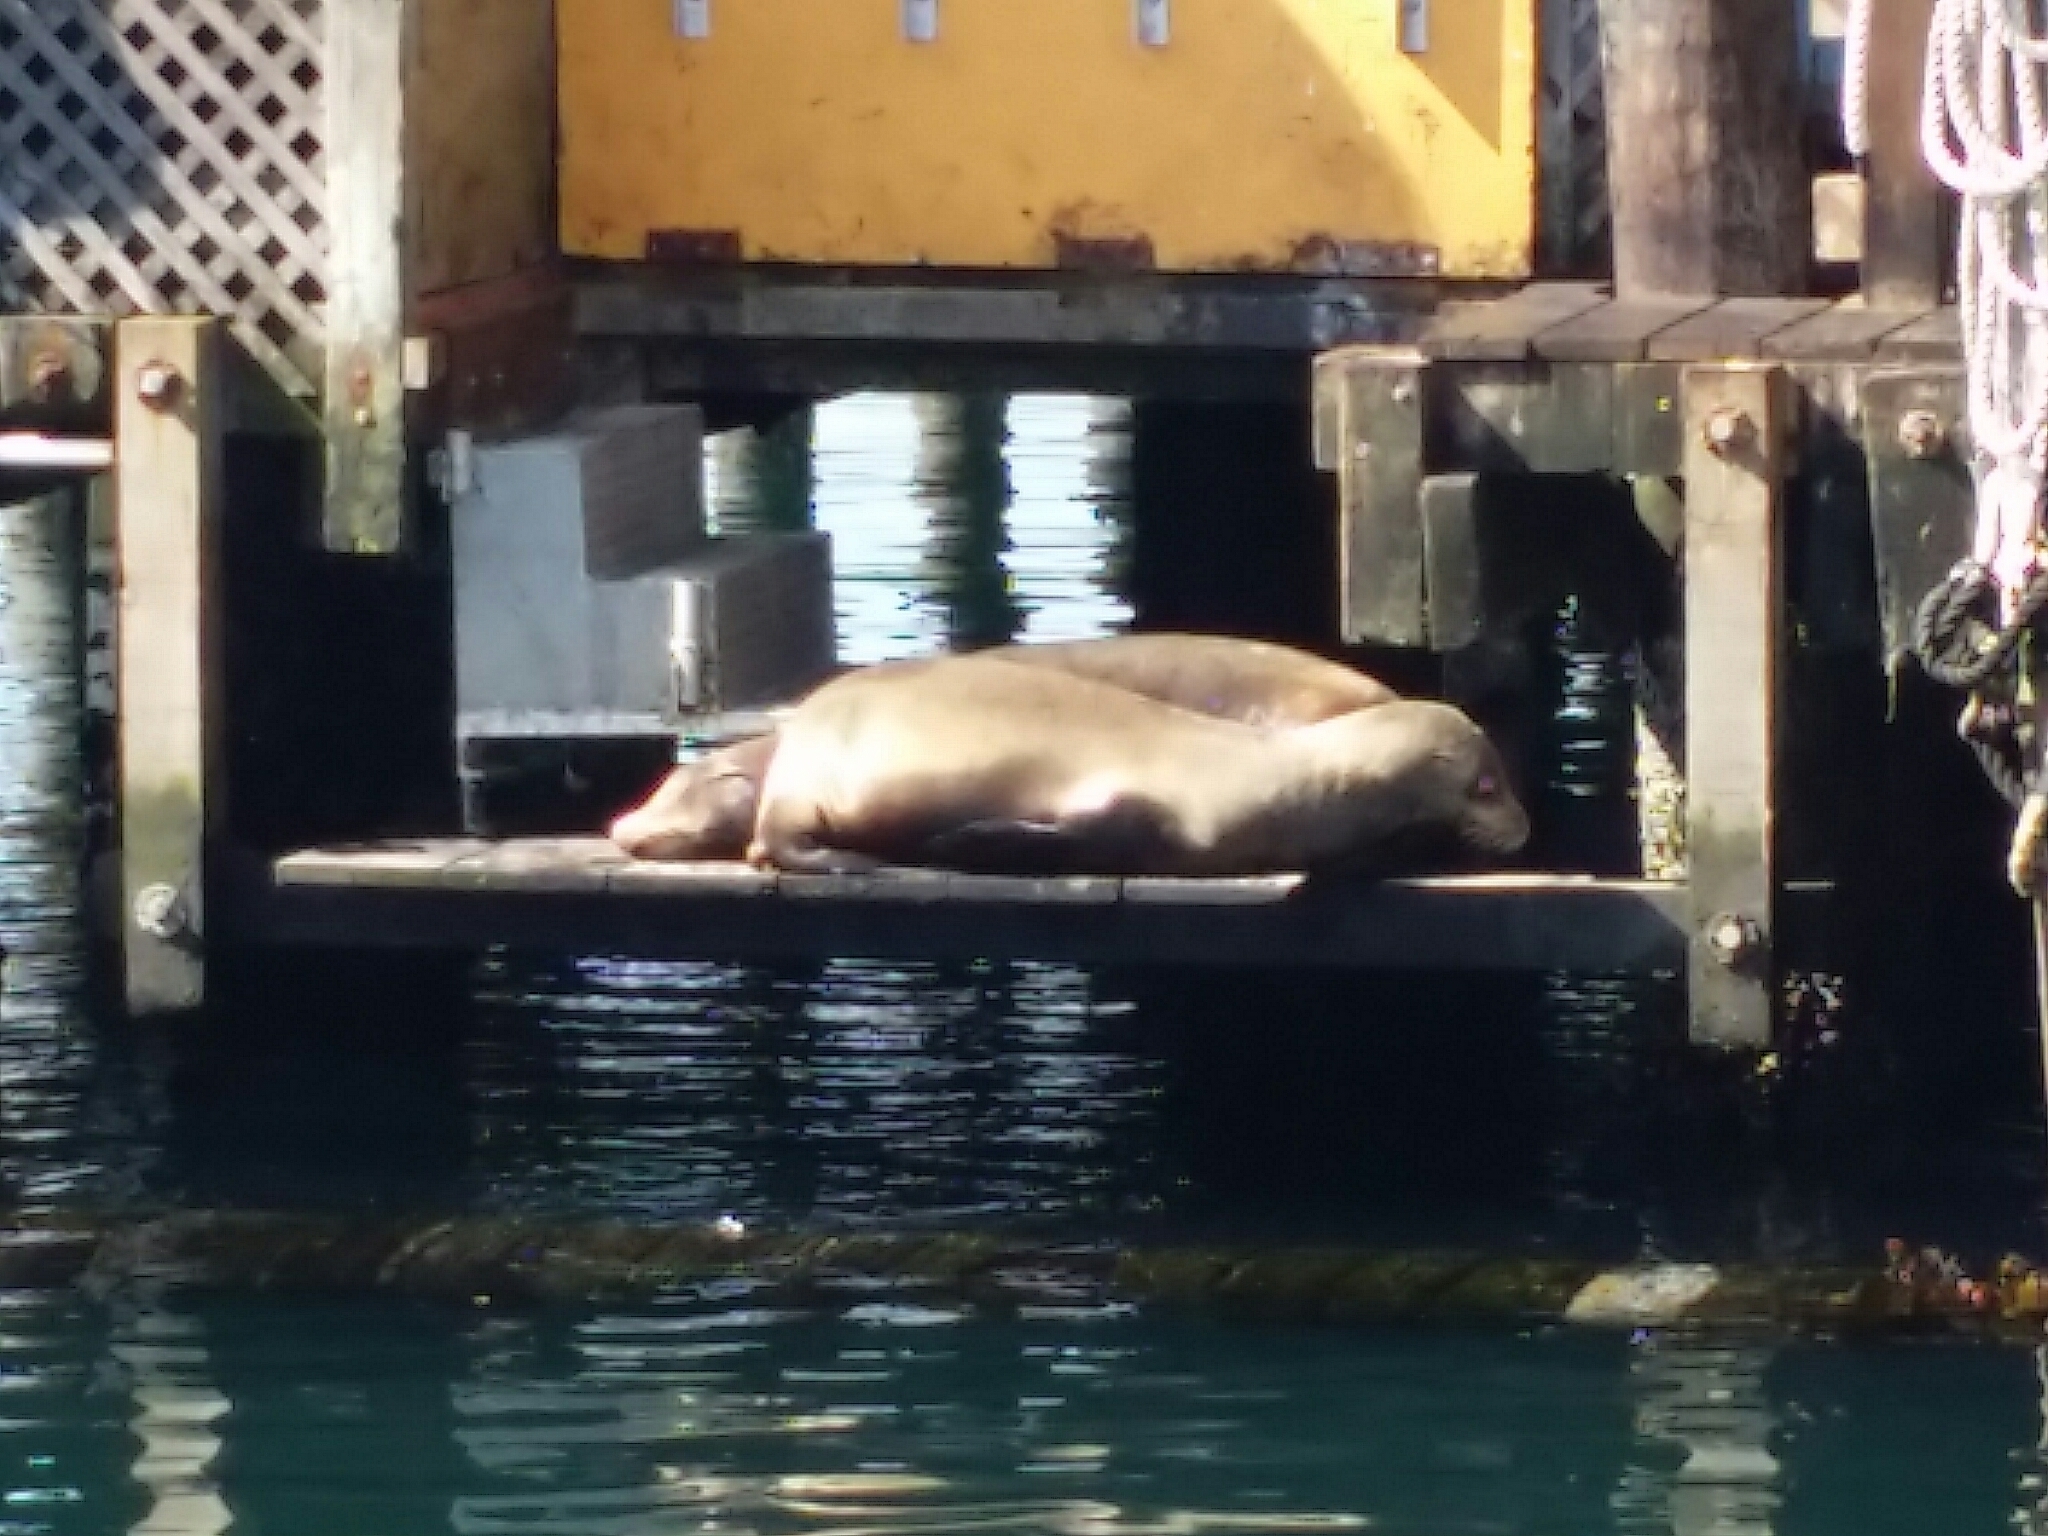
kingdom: Animalia
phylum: Chordata
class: Mammalia
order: Carnivora
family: Otariidae
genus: Zalophus
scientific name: Zalophus californianus
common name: California sea lion
